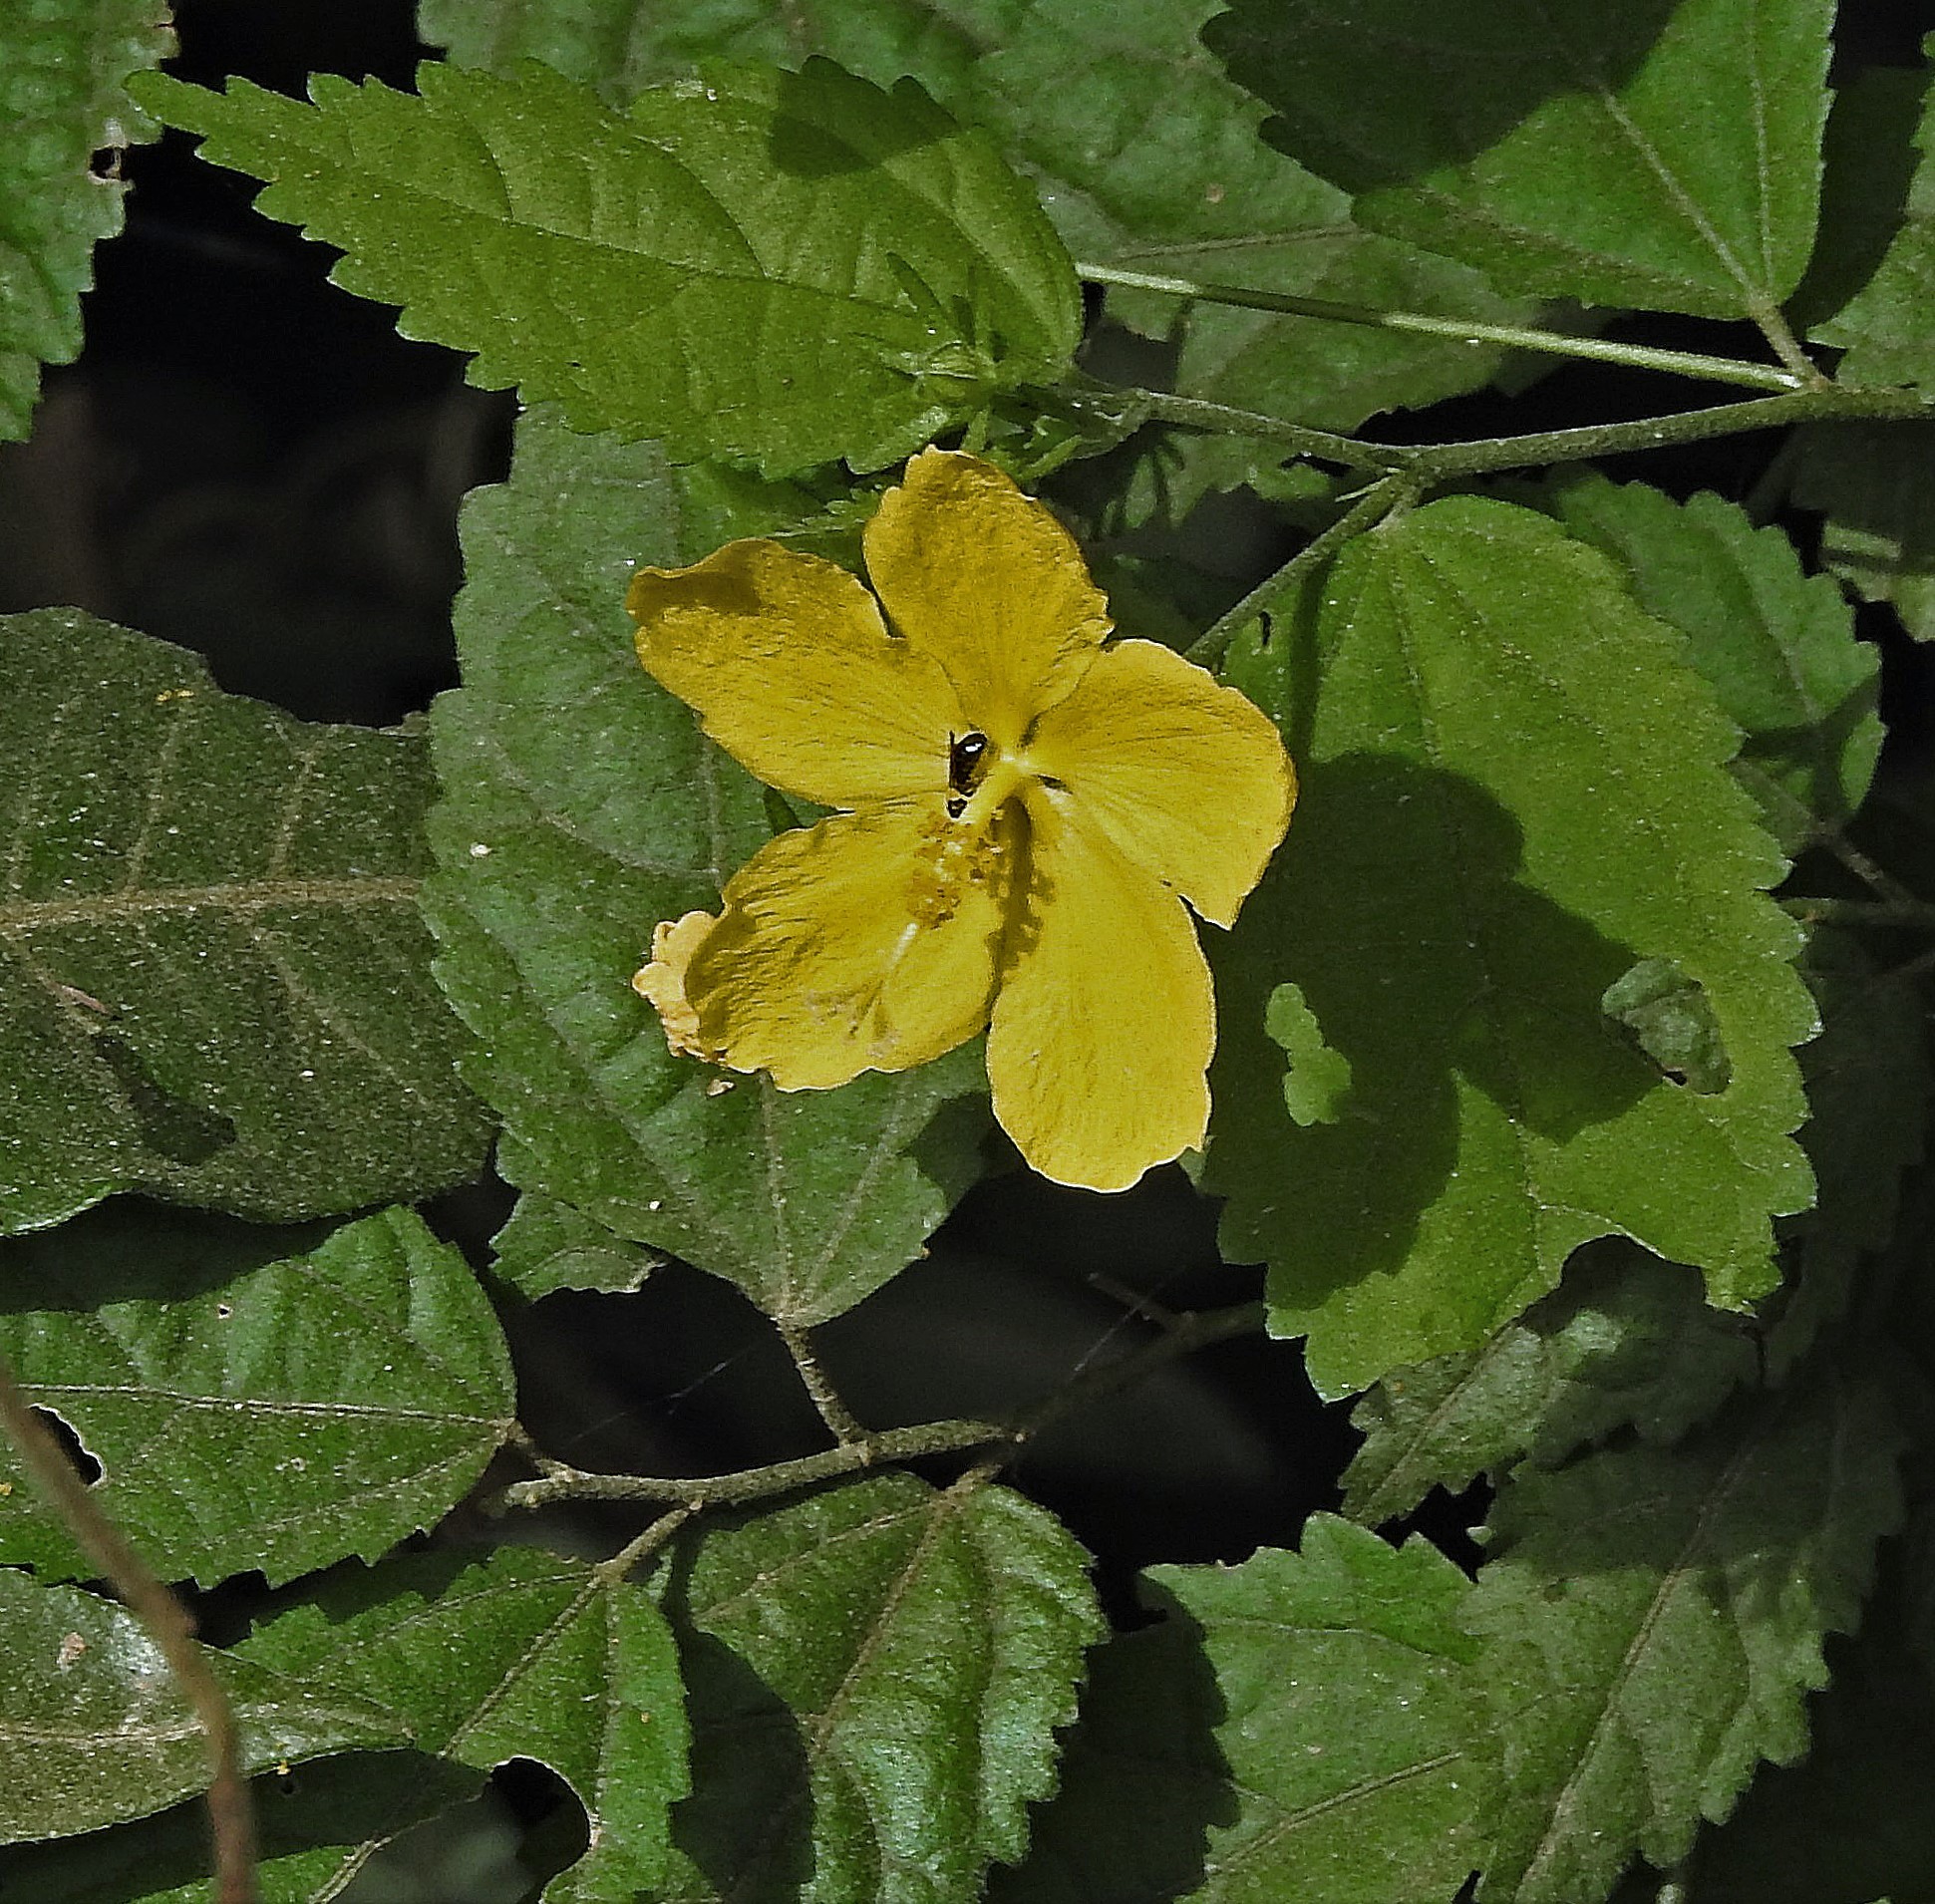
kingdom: Plantae
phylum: Tracheophyta
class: Magnoliopsida
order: Malvales
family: Malvaceae
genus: Pavonia
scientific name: Pavonia sepium
